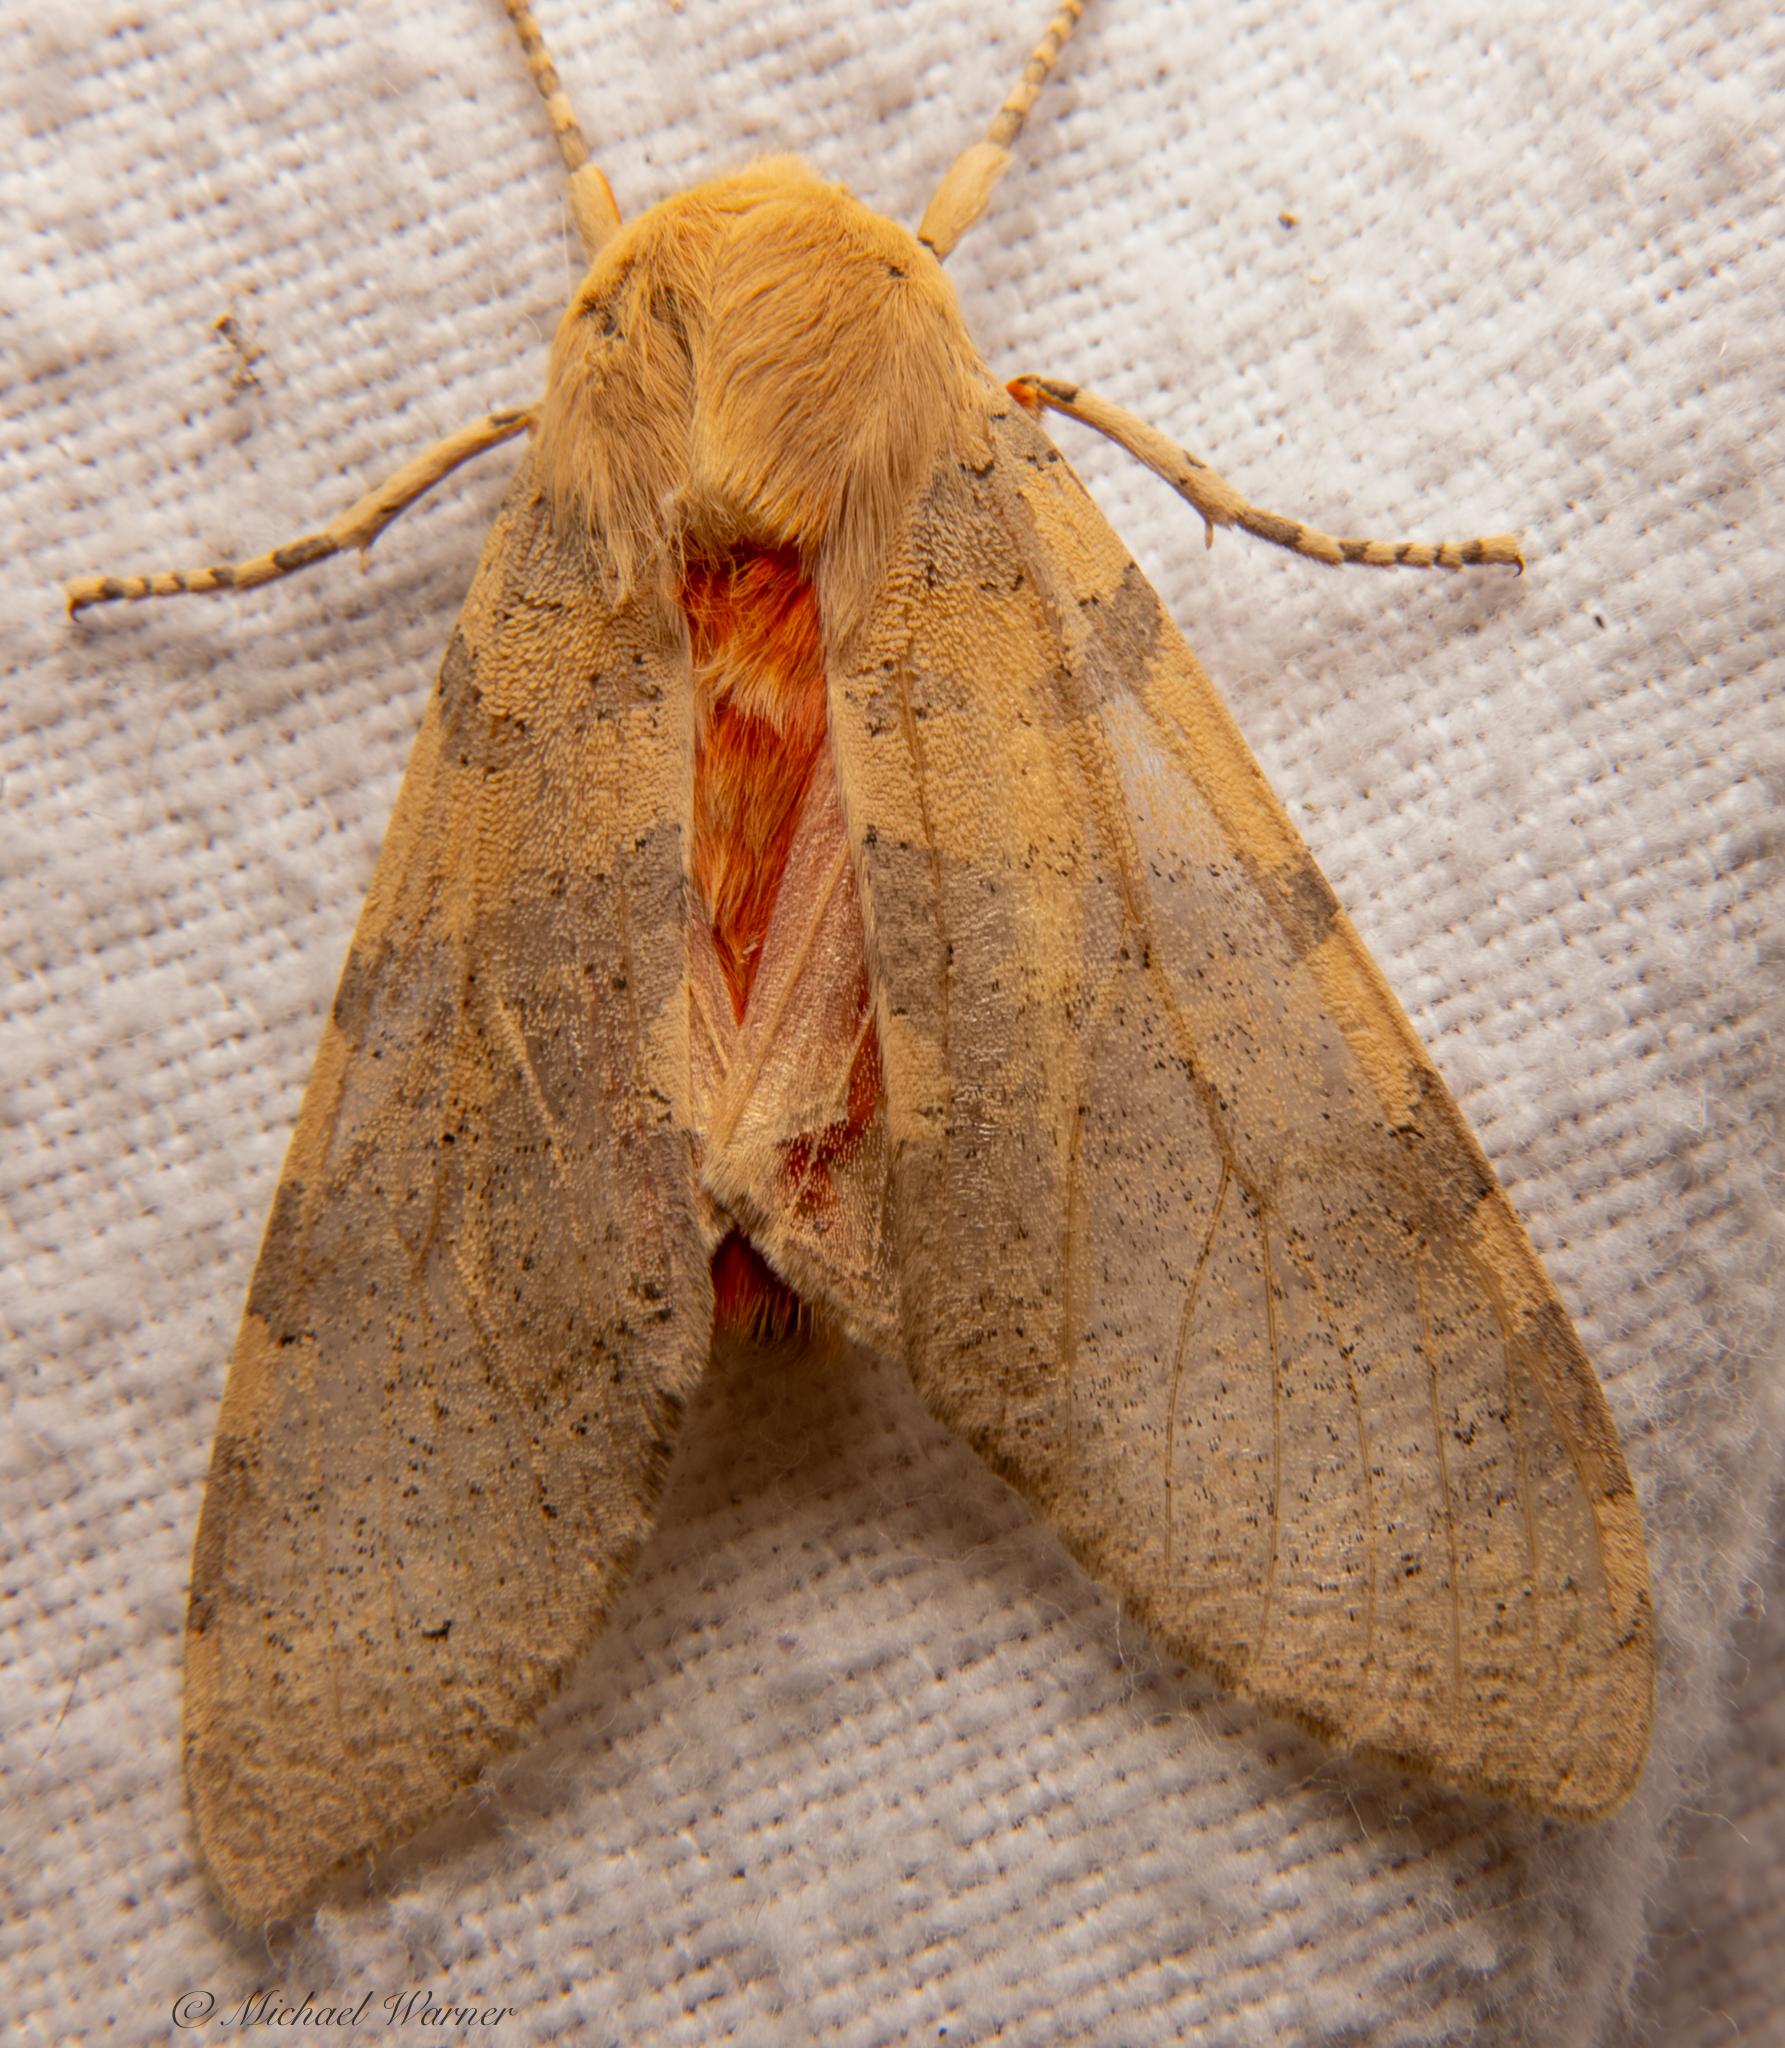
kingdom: Animalia
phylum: Arthropoda
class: Insecta
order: Lepidoptera
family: Erebidae
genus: Hemihyalea
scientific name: Hemihyalea edwardsii
